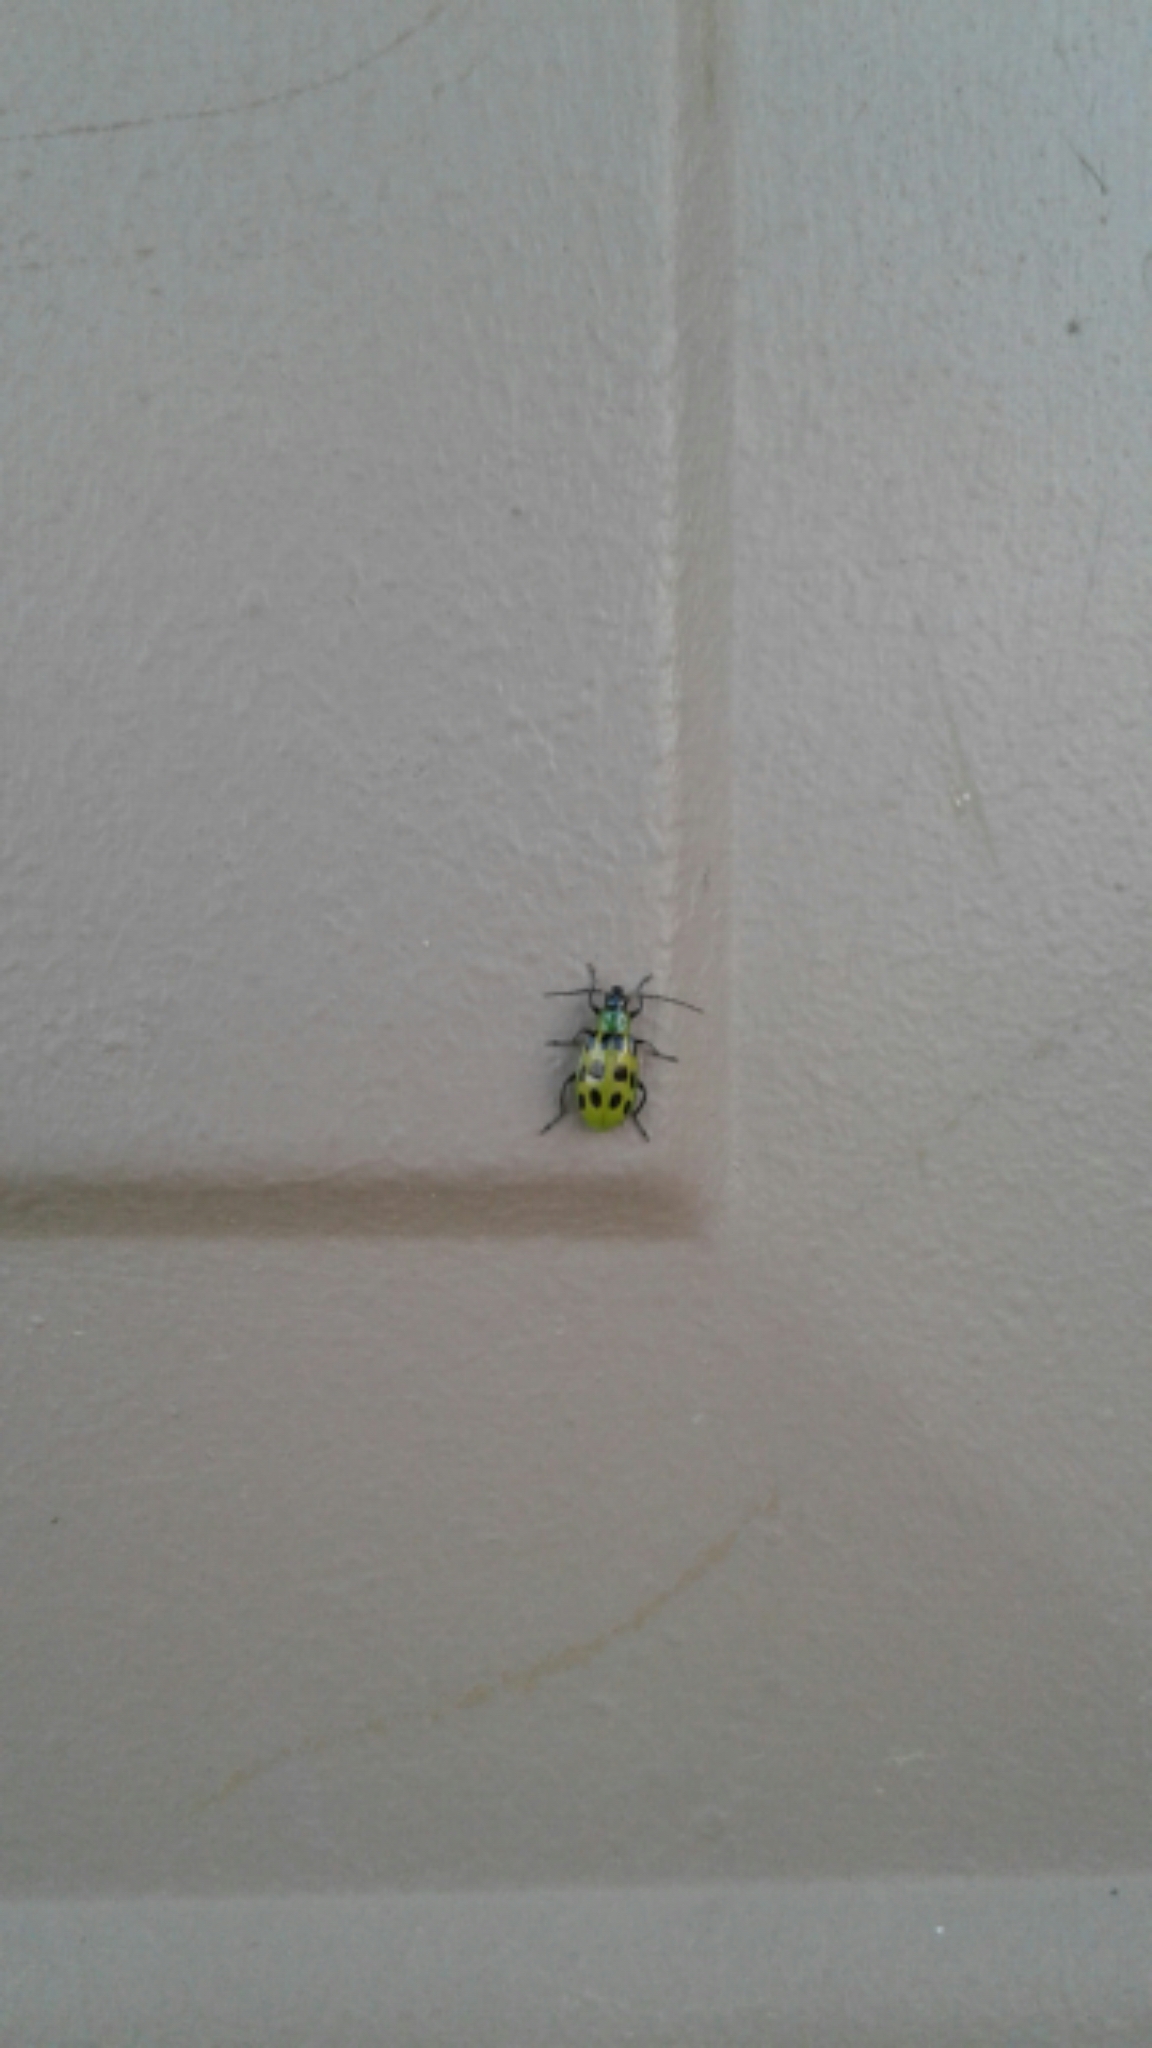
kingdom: Animalia
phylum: Arthropoda
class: Insecta
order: Coleoptera
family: Chrysomelidae
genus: Diabrotica
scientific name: Diabrotica undecimpunctata
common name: Spotted cucumber beetle
